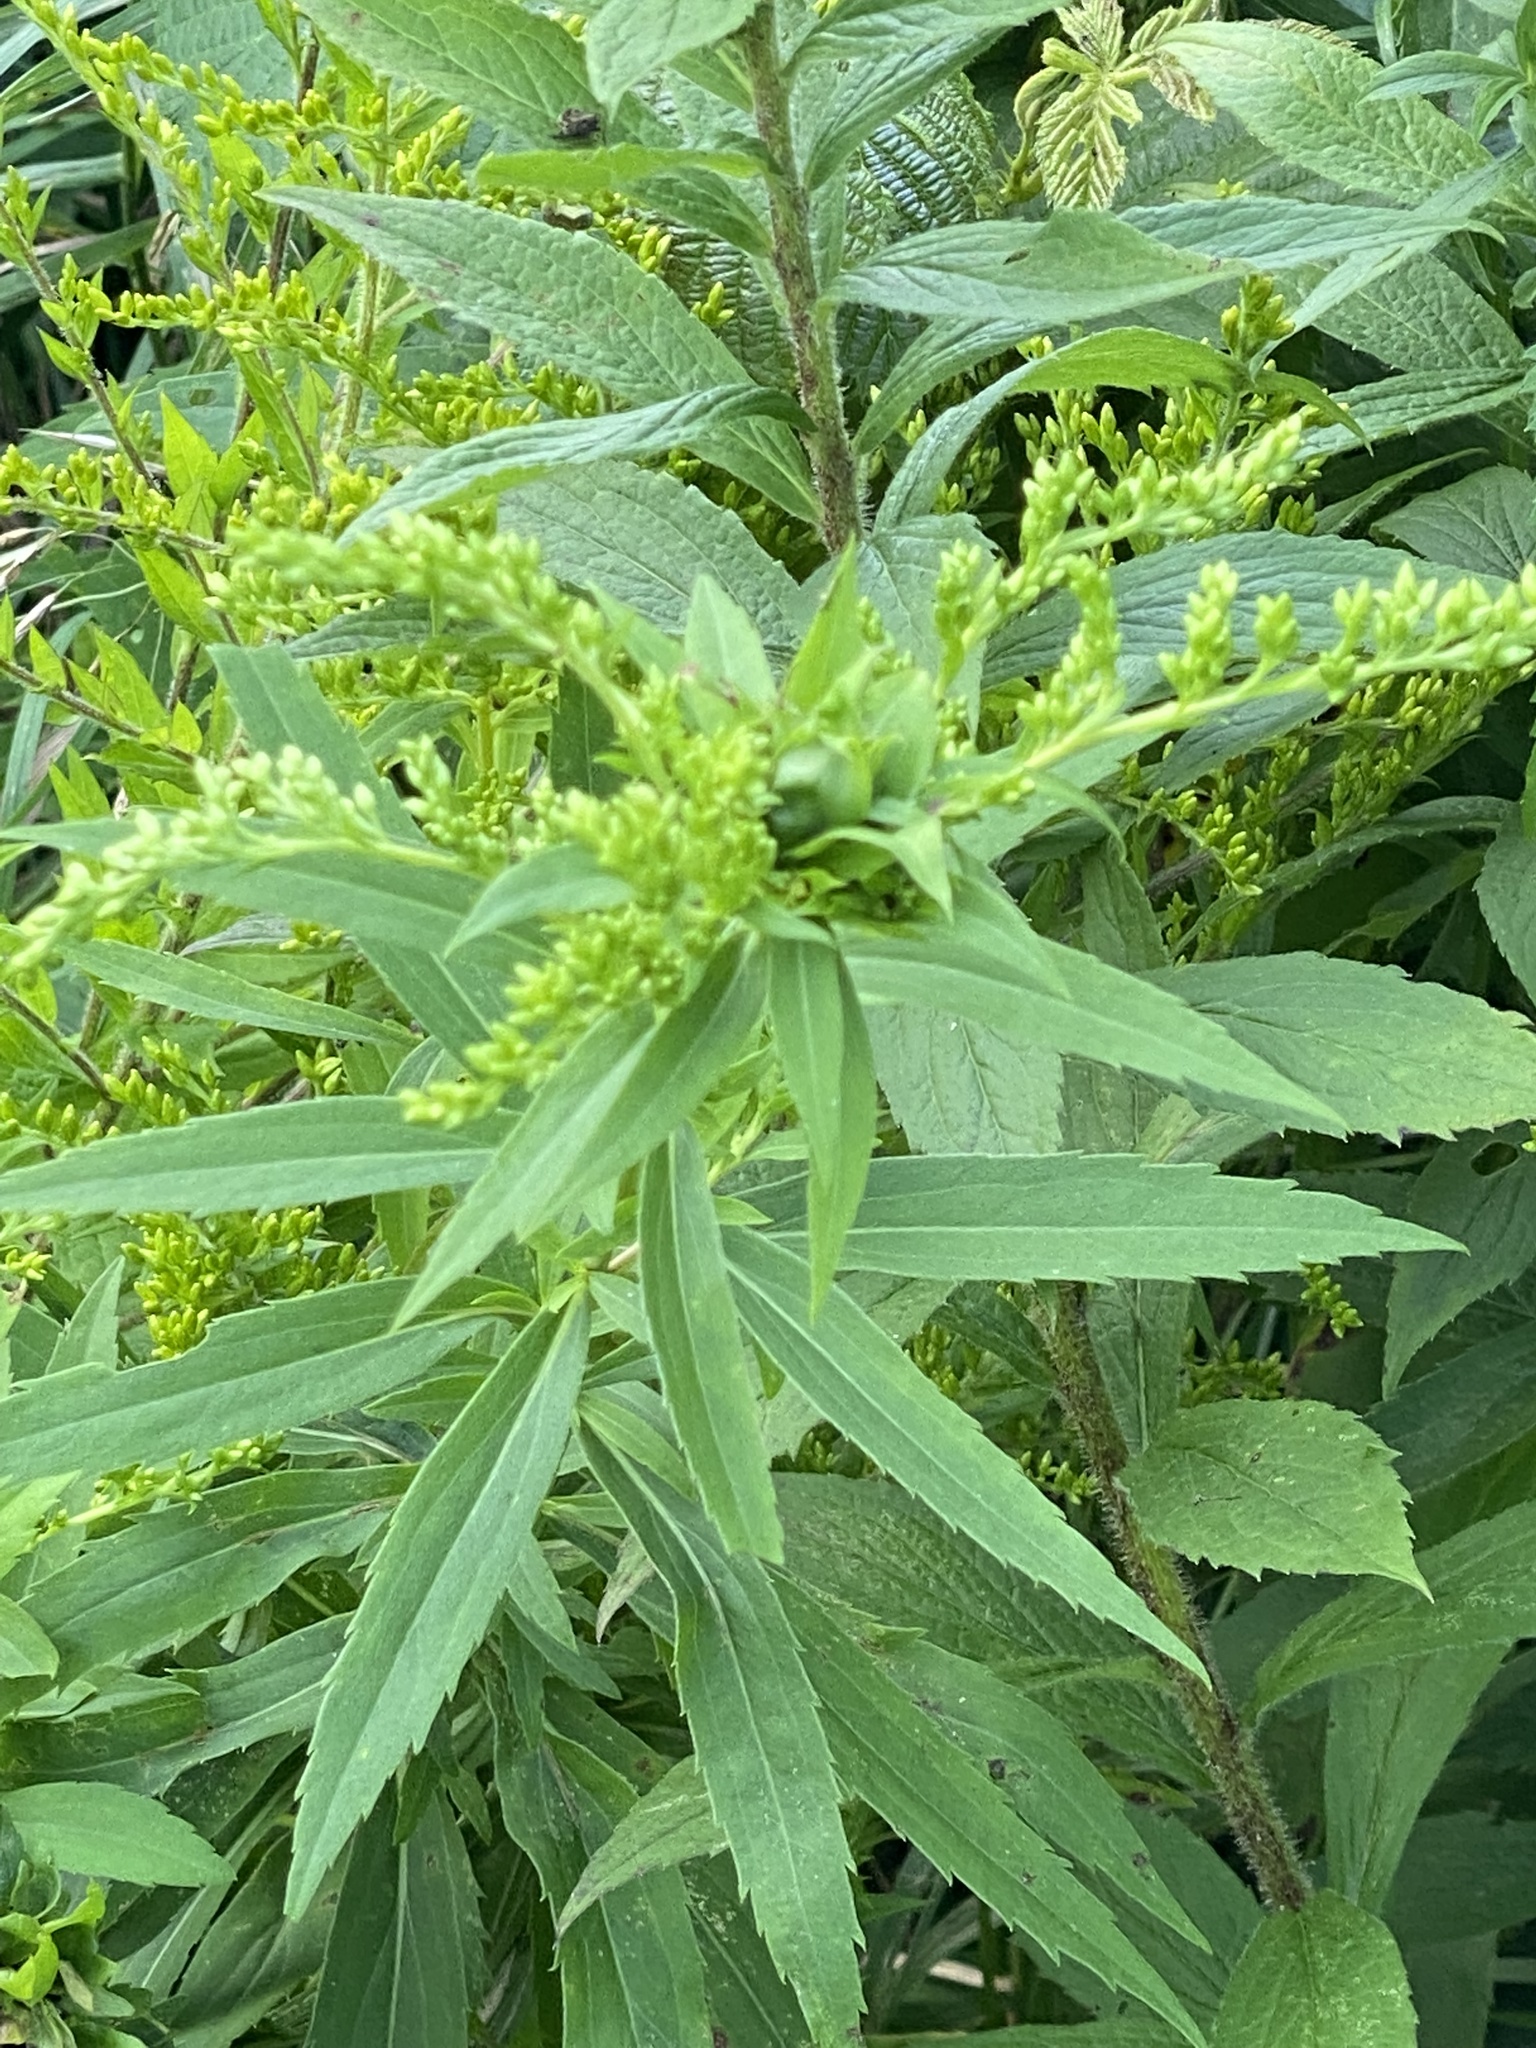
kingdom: Animalia
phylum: Arthropoda
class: Insecta
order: Diptera
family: Cecidomyiidae
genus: Rhopalomyia
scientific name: Rhopalomyia capitata
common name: Giant goldenrod bunch gall midge
